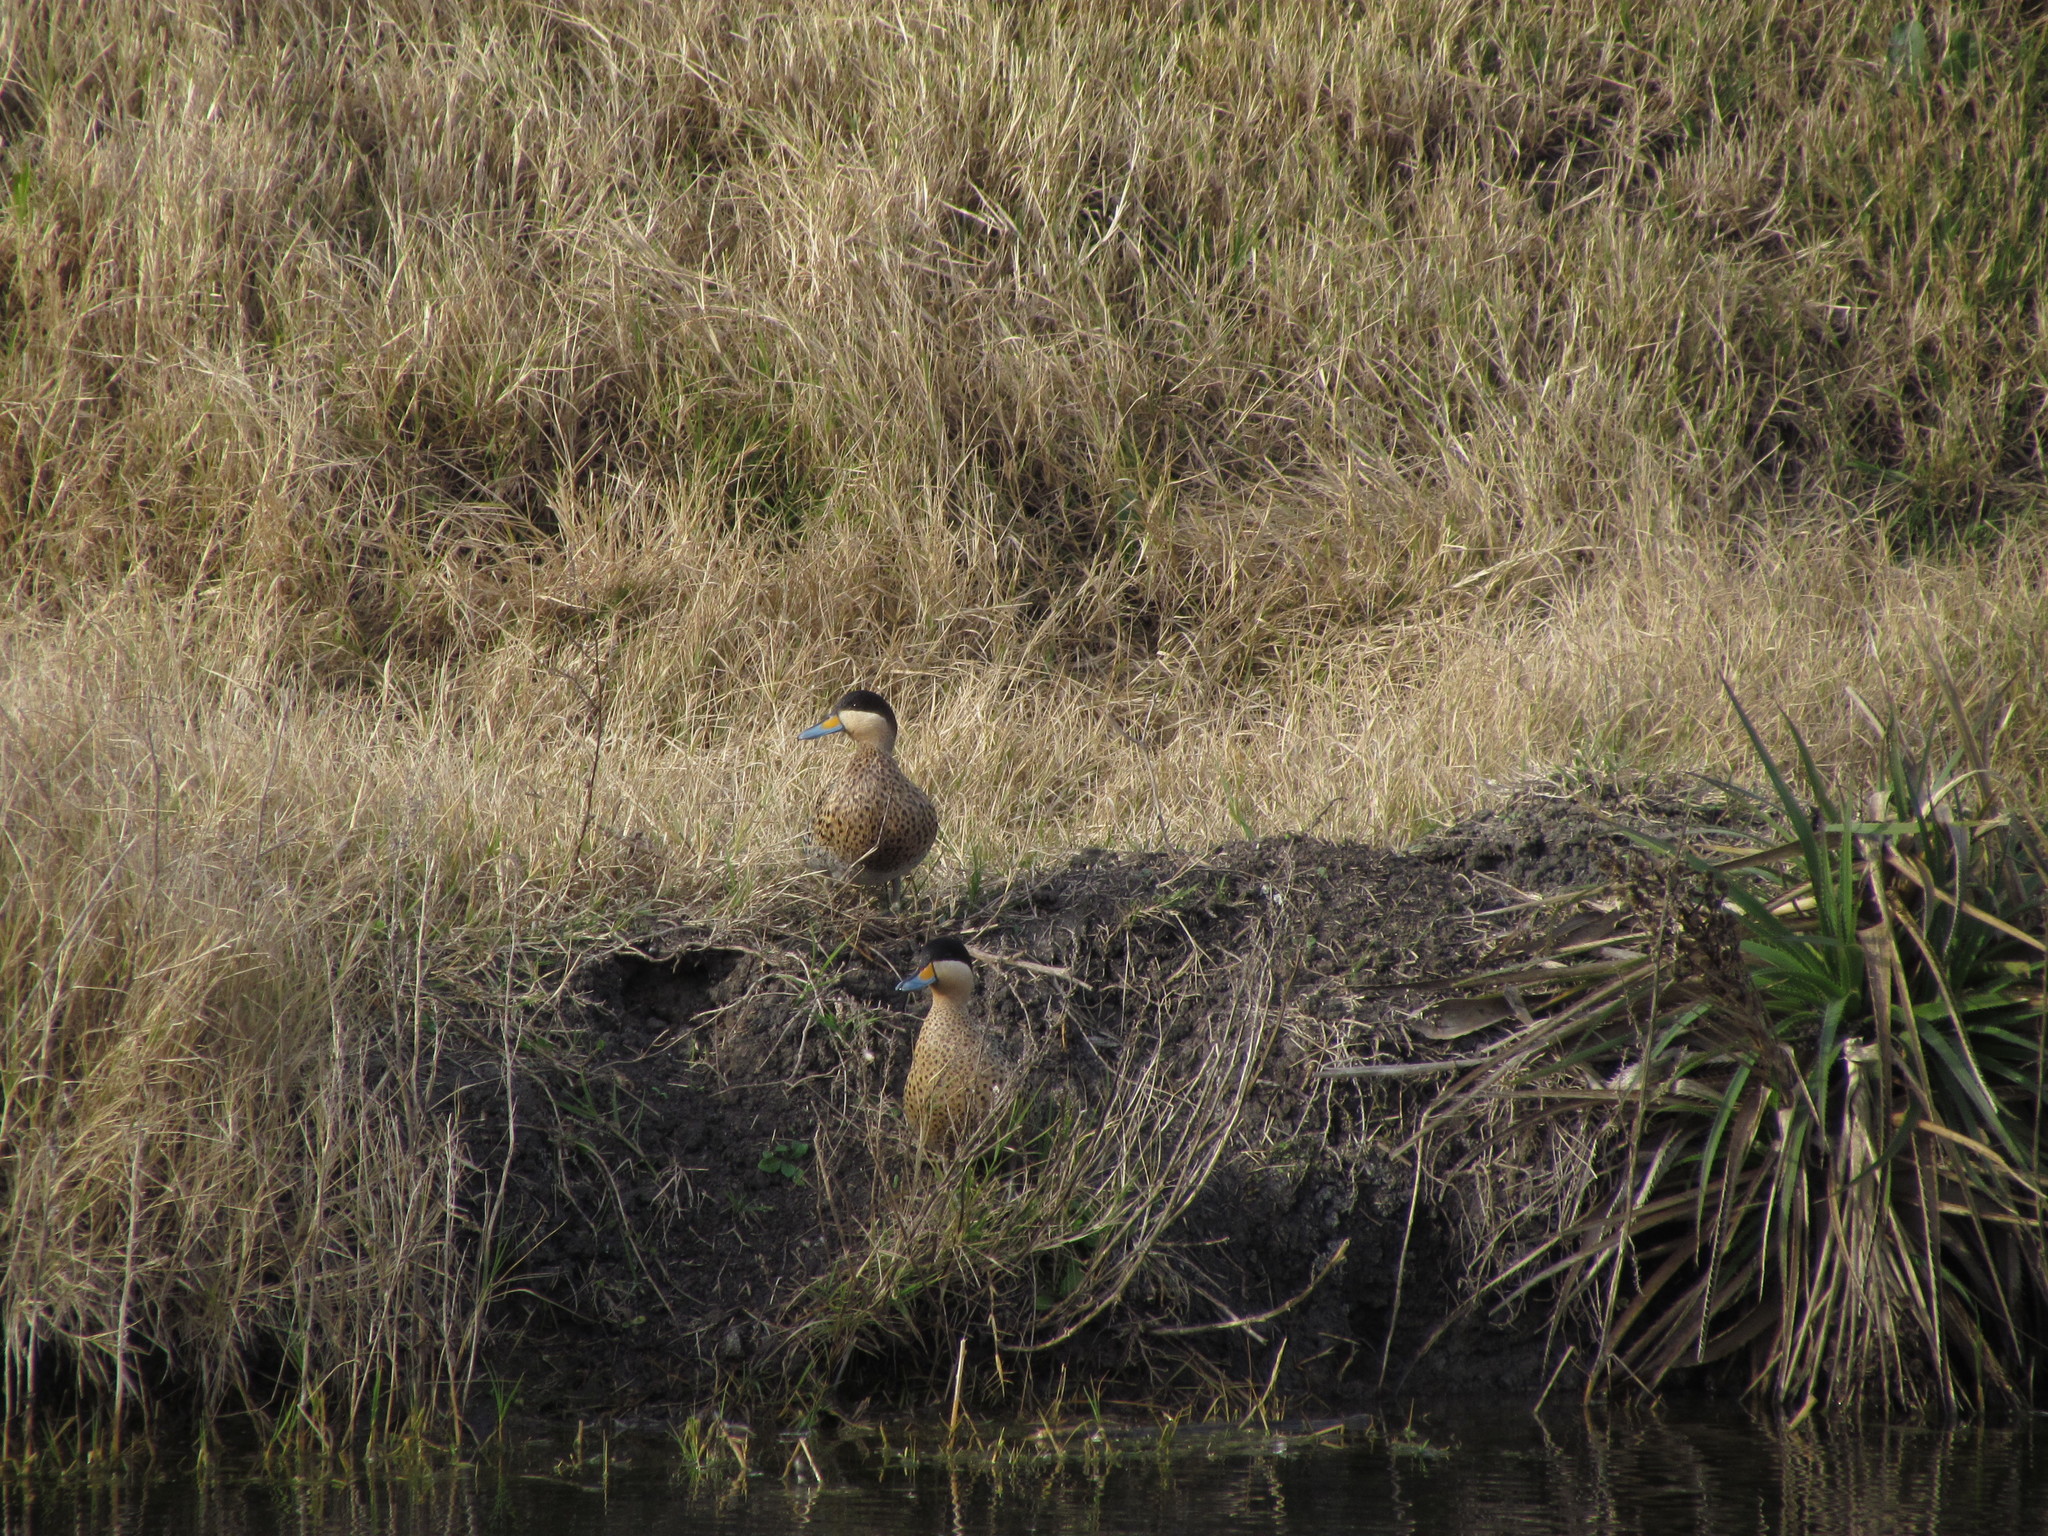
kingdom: Animalia
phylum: Chordata
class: Aves
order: Anseriformes
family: Anatidae
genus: Spatula
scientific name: Spatula versicolor
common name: Silver teal
